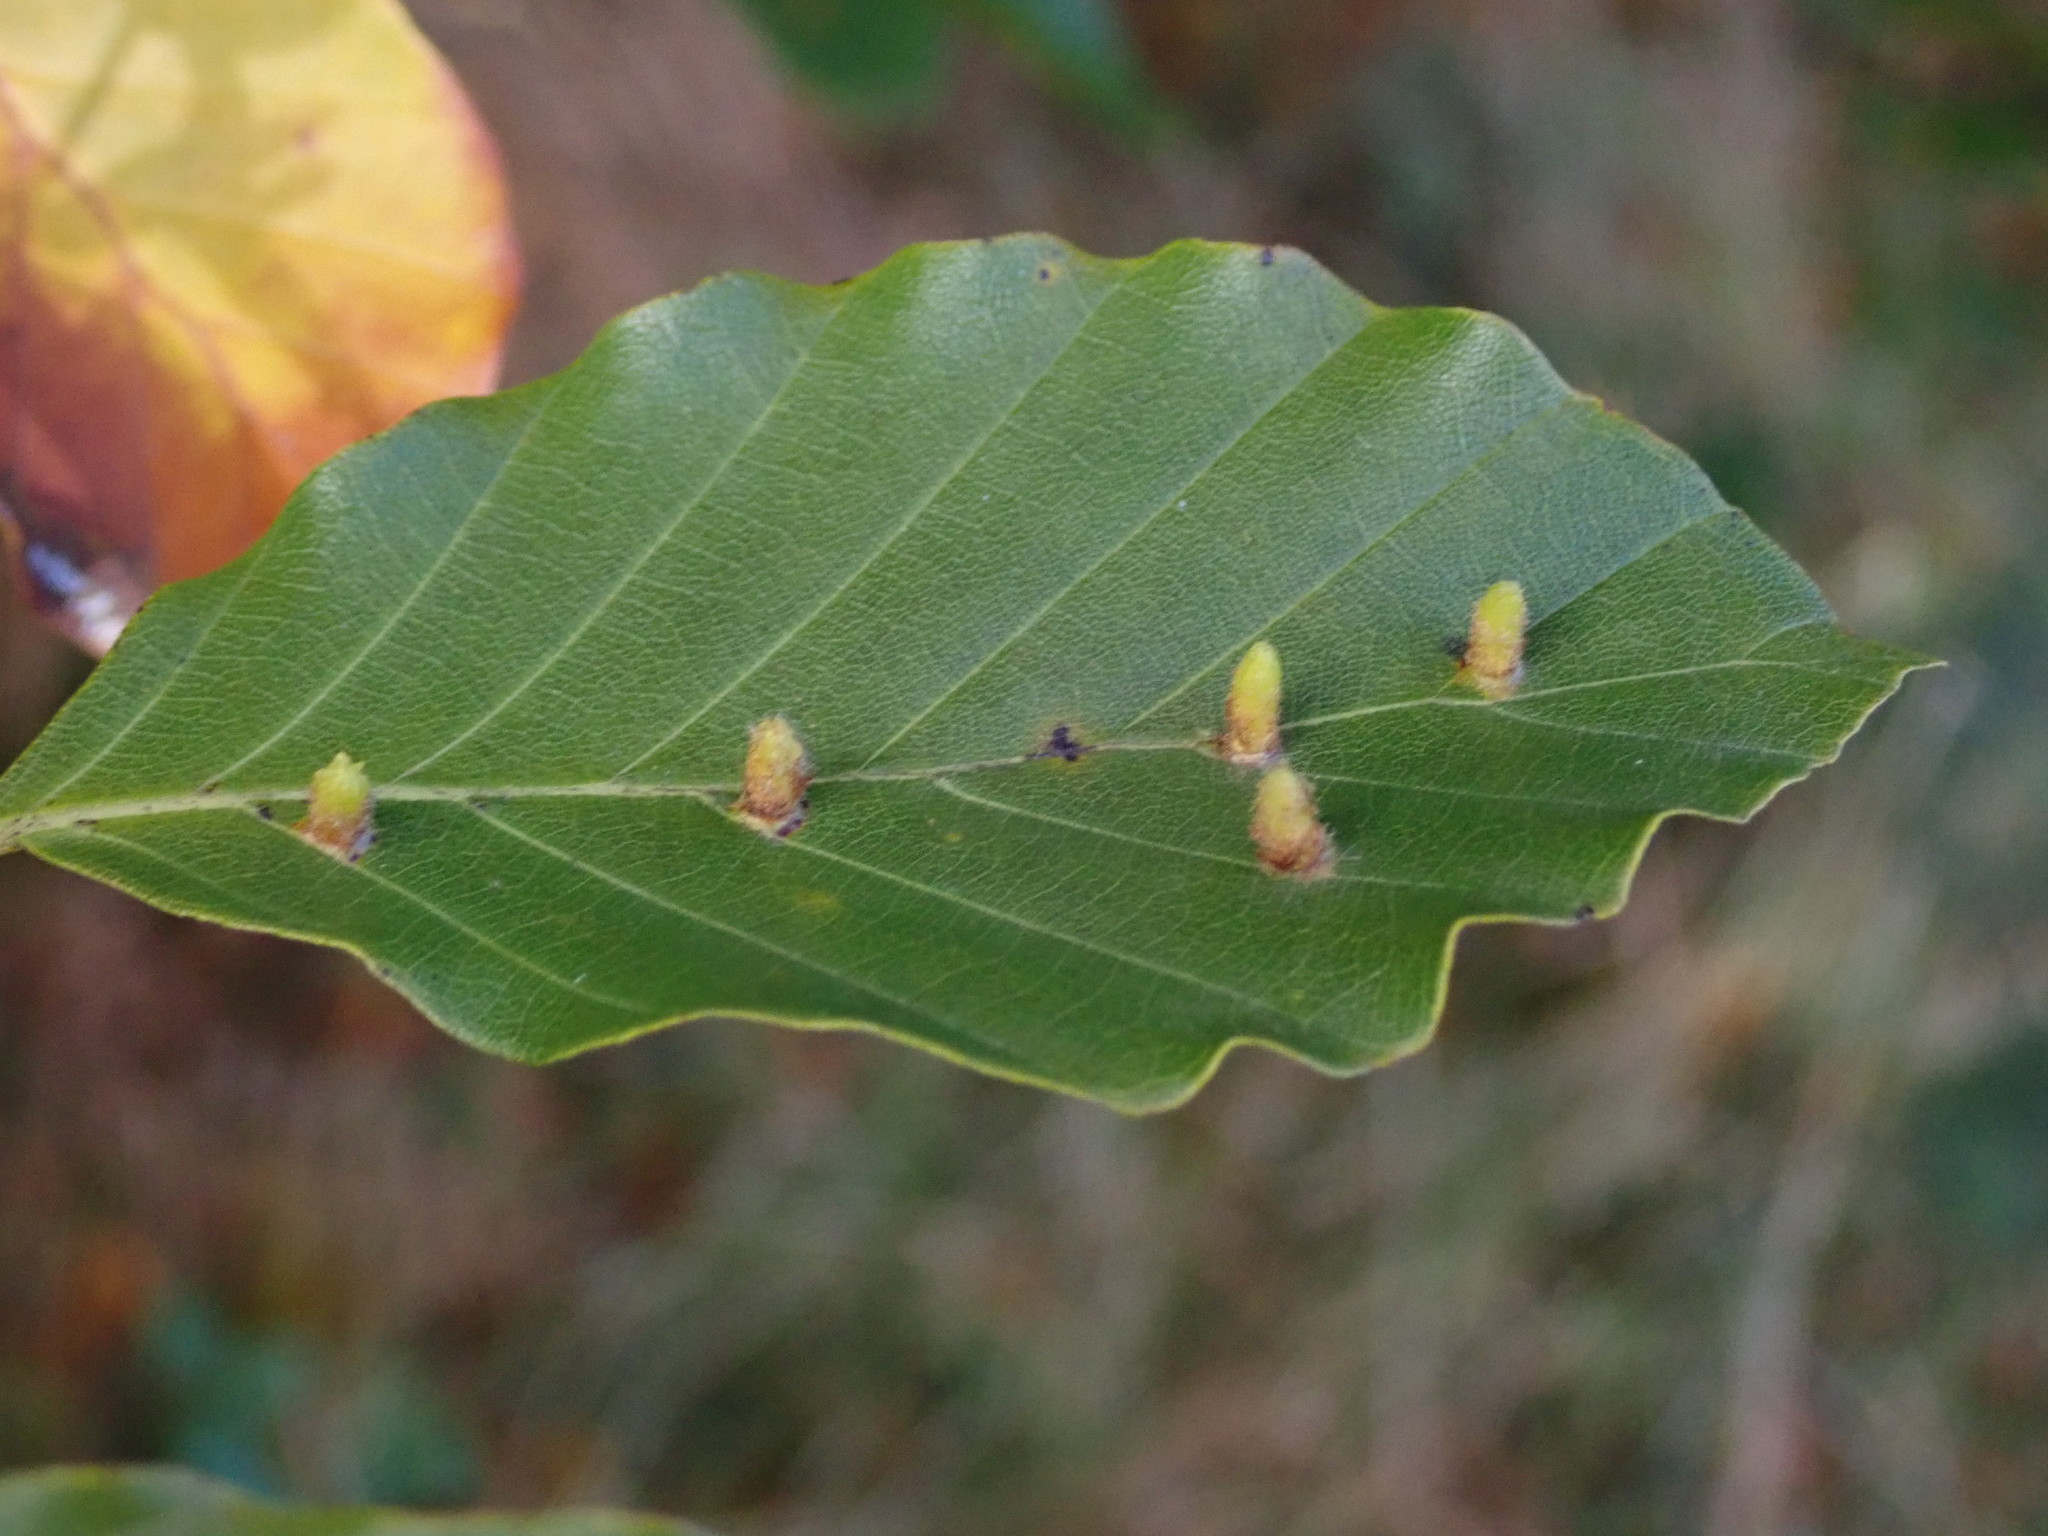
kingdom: Animalia
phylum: Arthropoda
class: Insecta
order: Diptera
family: Cecidomyiidae
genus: Hartigiola
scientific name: Hartigiola annulipes
